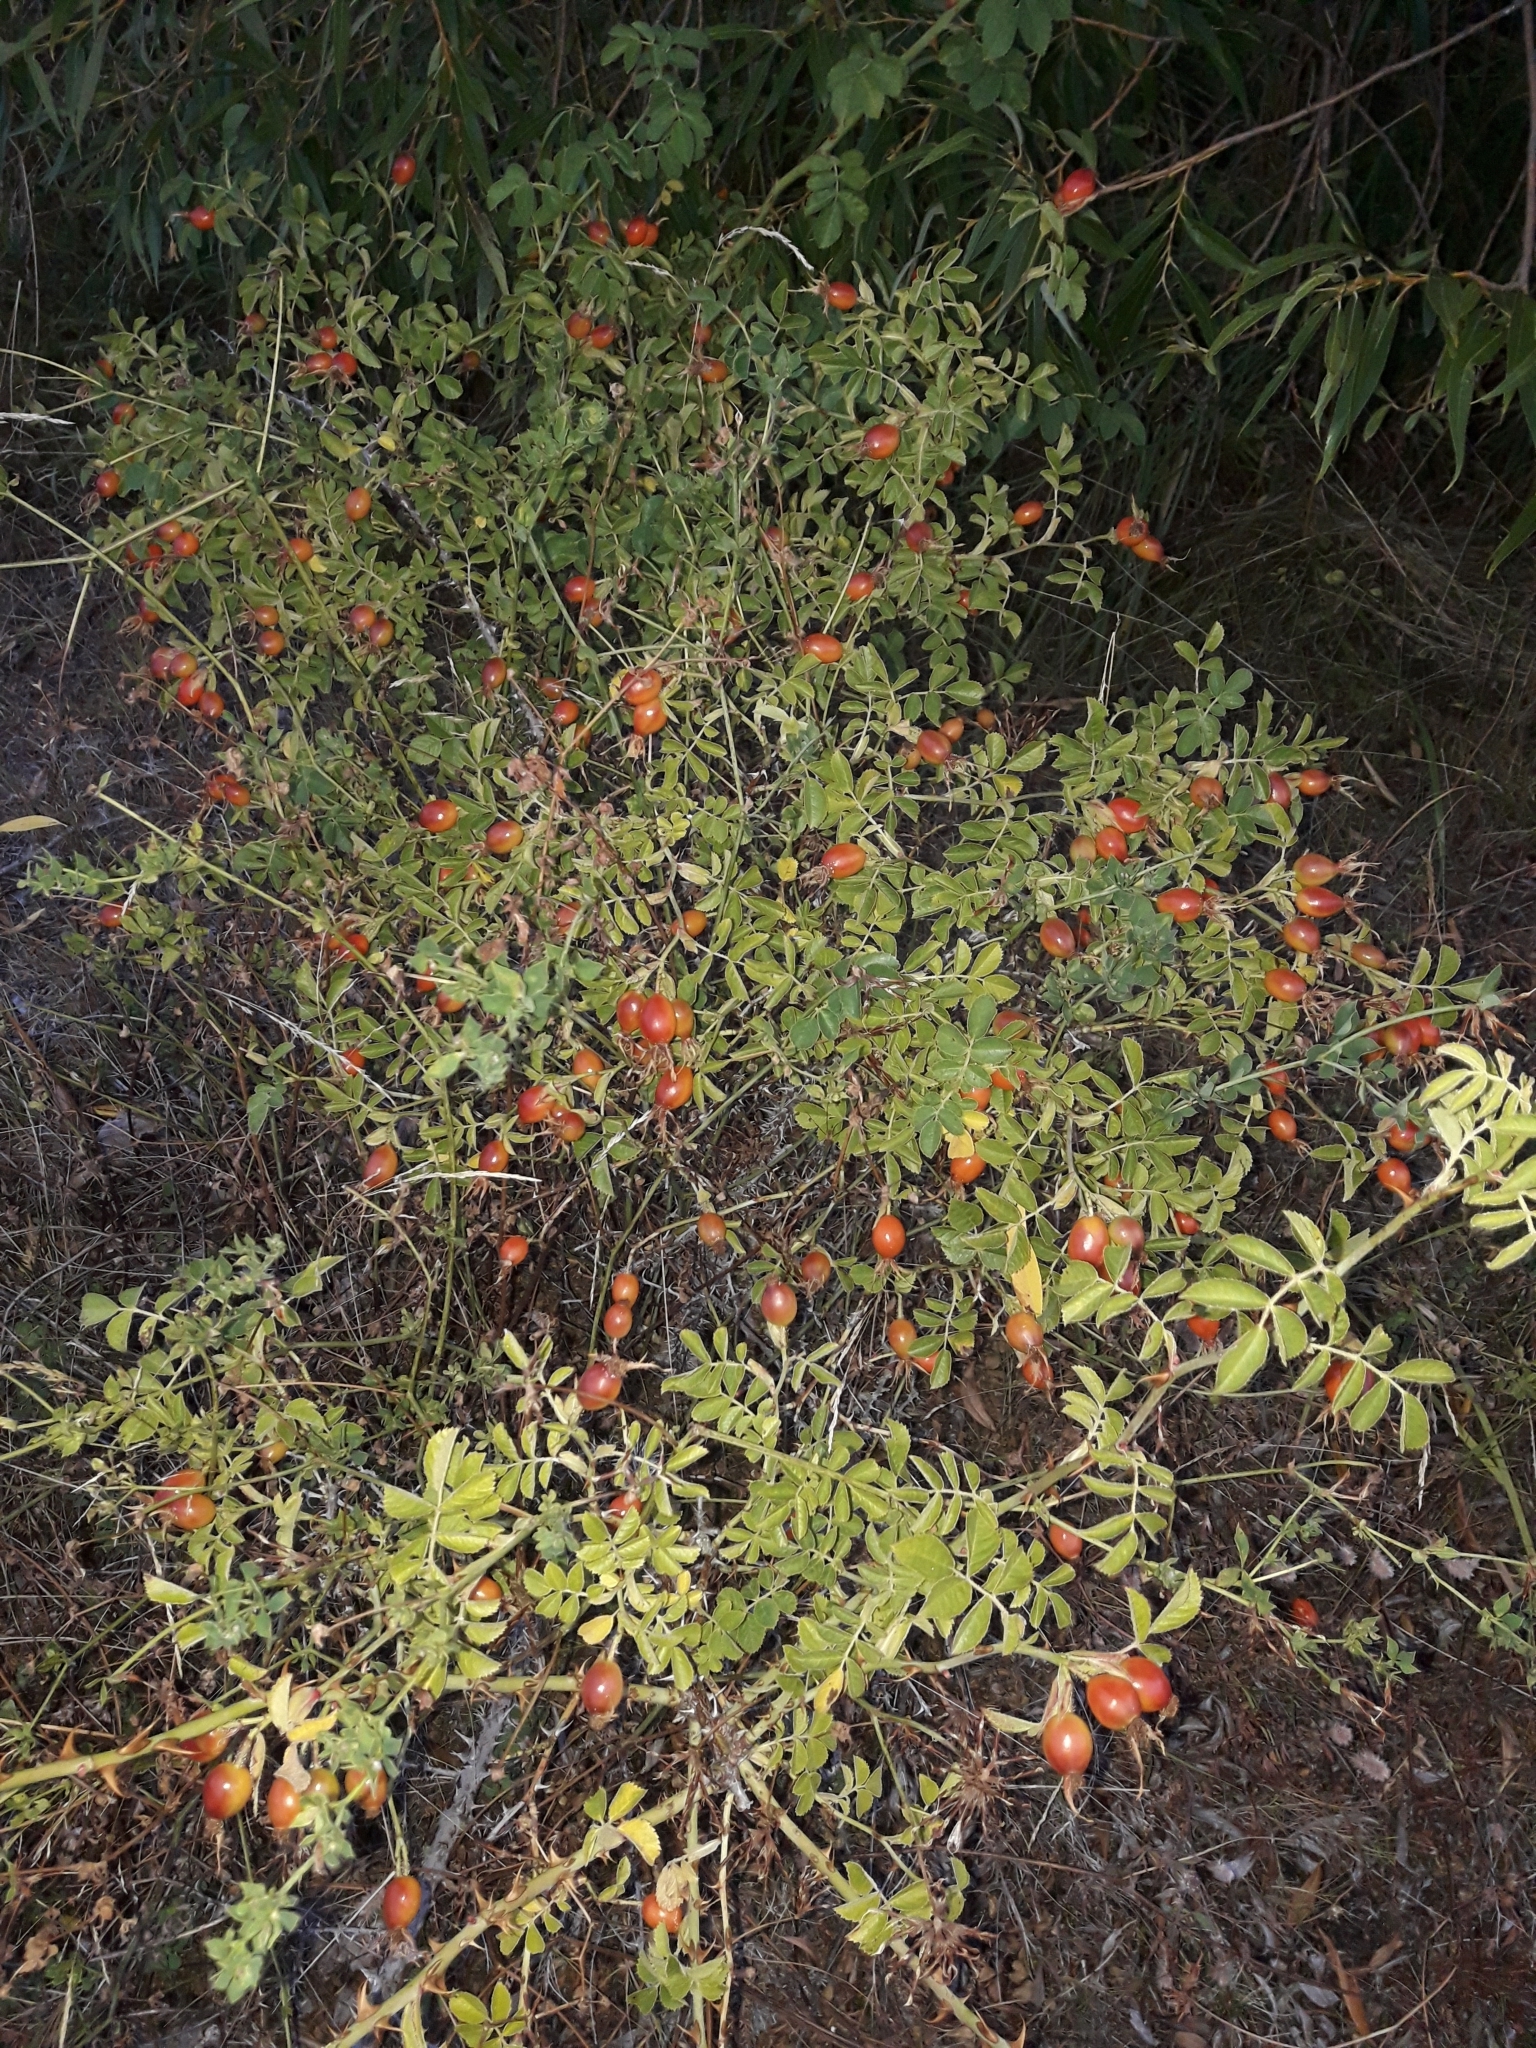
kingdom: Plantae
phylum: Tracheophyta
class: Magnoliopsida
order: Rosales
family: Rosaceae
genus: Rosa
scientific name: Rosa rubiginosa
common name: Sweet-briar
